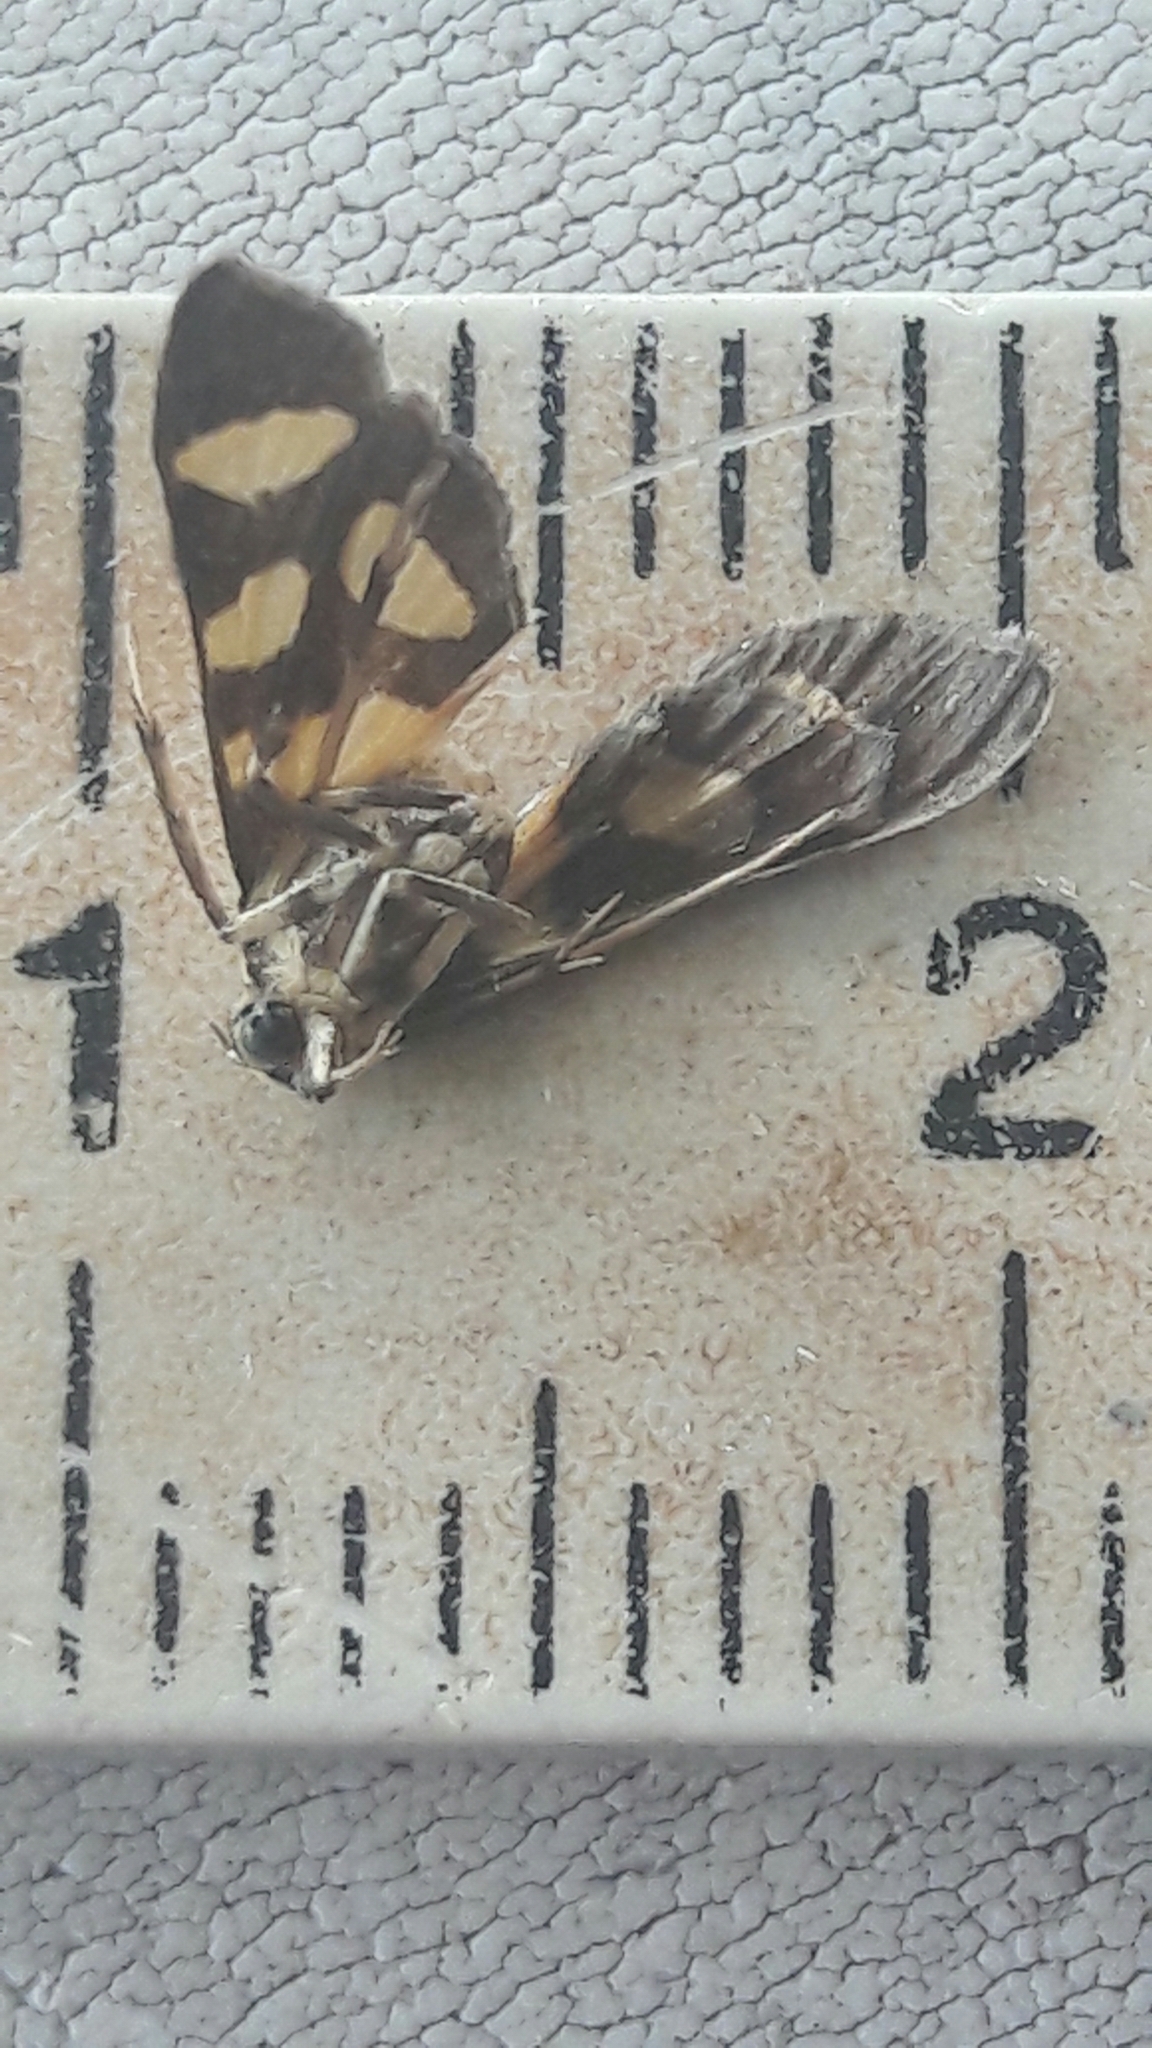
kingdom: Animalia
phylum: Arthropoda
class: Insecta
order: Lepidoptera
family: Crambidae
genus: Syngamia
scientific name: Syngamia florella
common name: Orange-spotted flower moth
